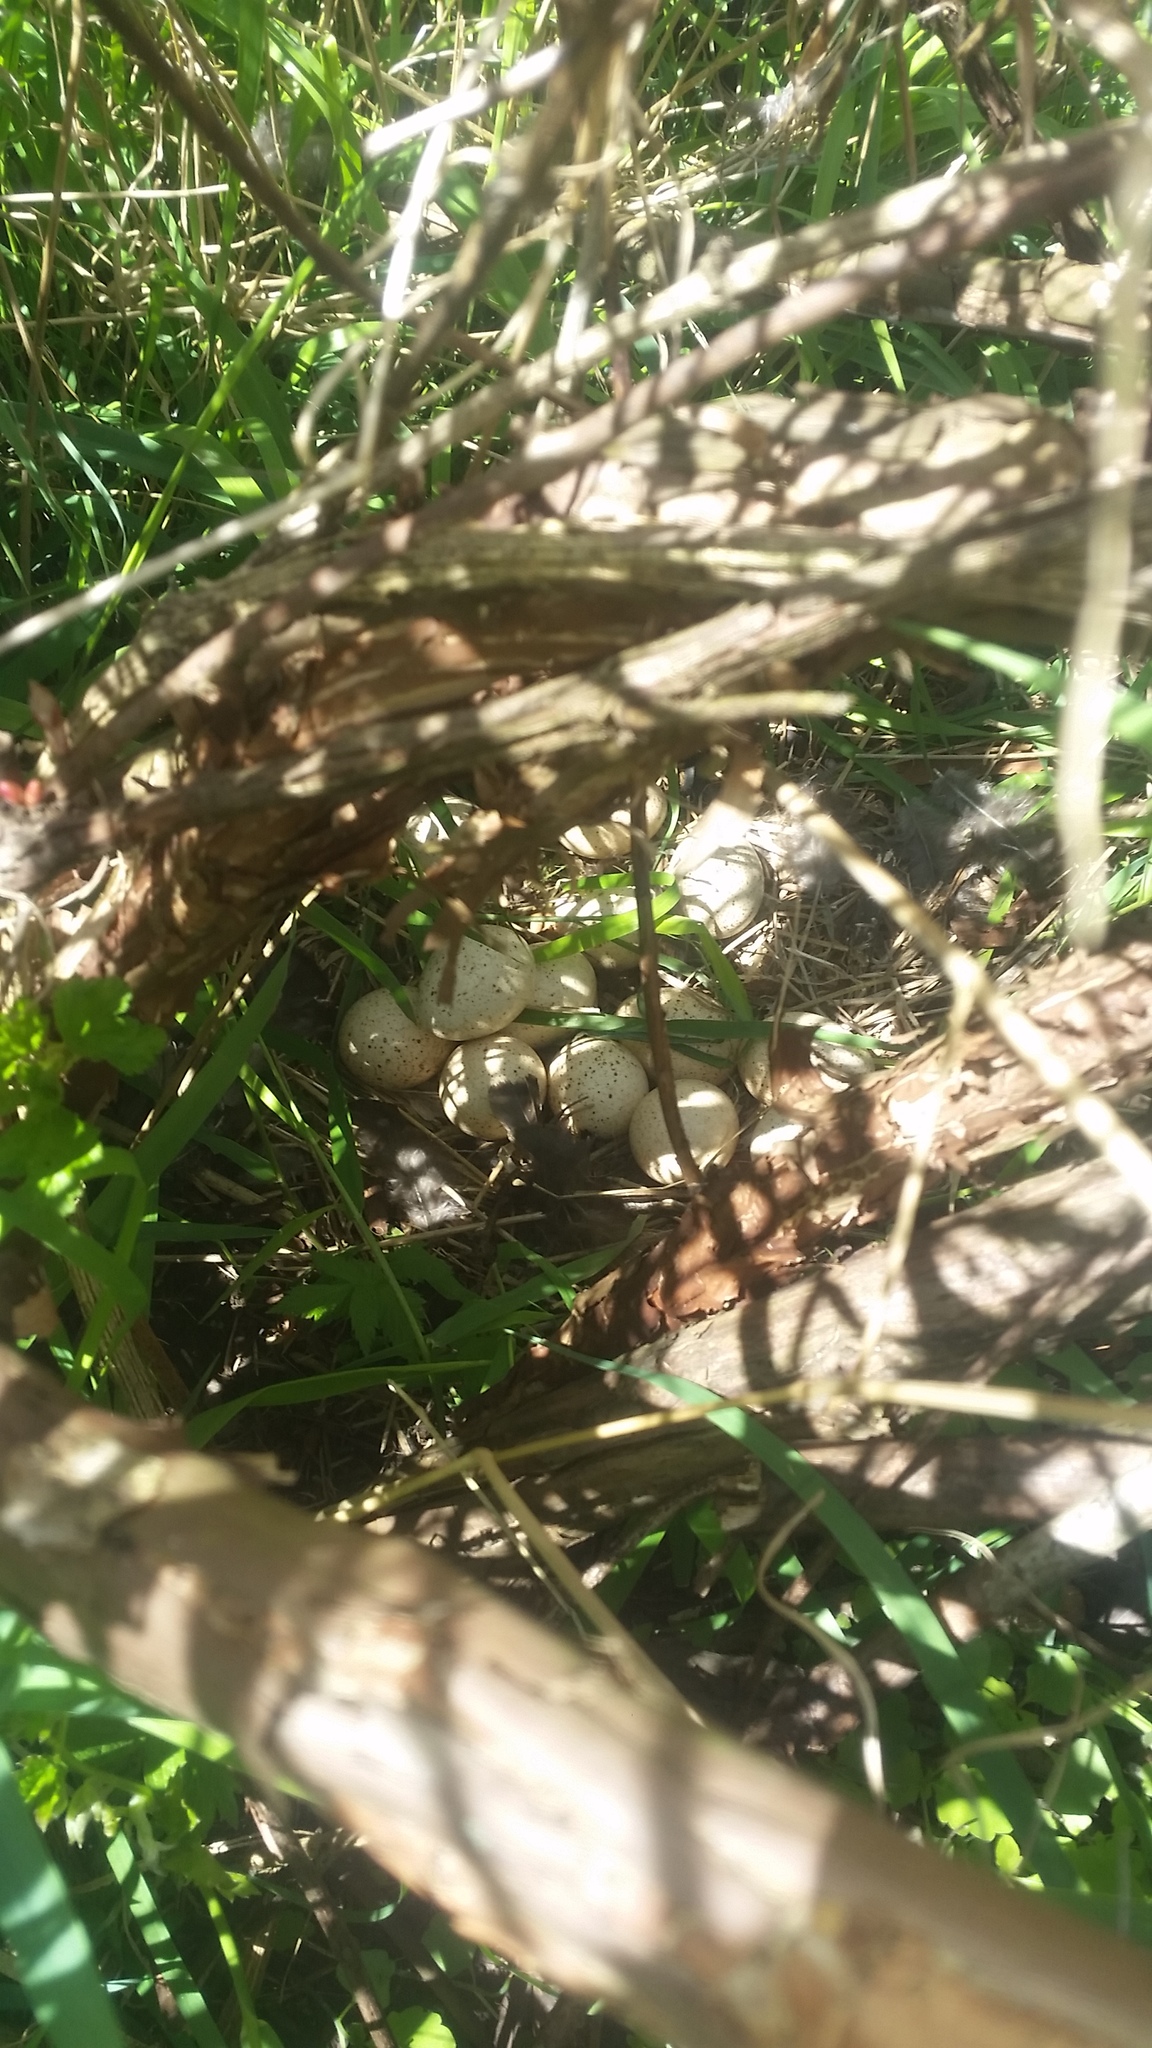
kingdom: Animalia
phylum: Chordata
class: Aves
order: Galliformes
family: Phasianidae
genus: Meleagris
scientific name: Meleagris gallopavo
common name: Wild turkey
